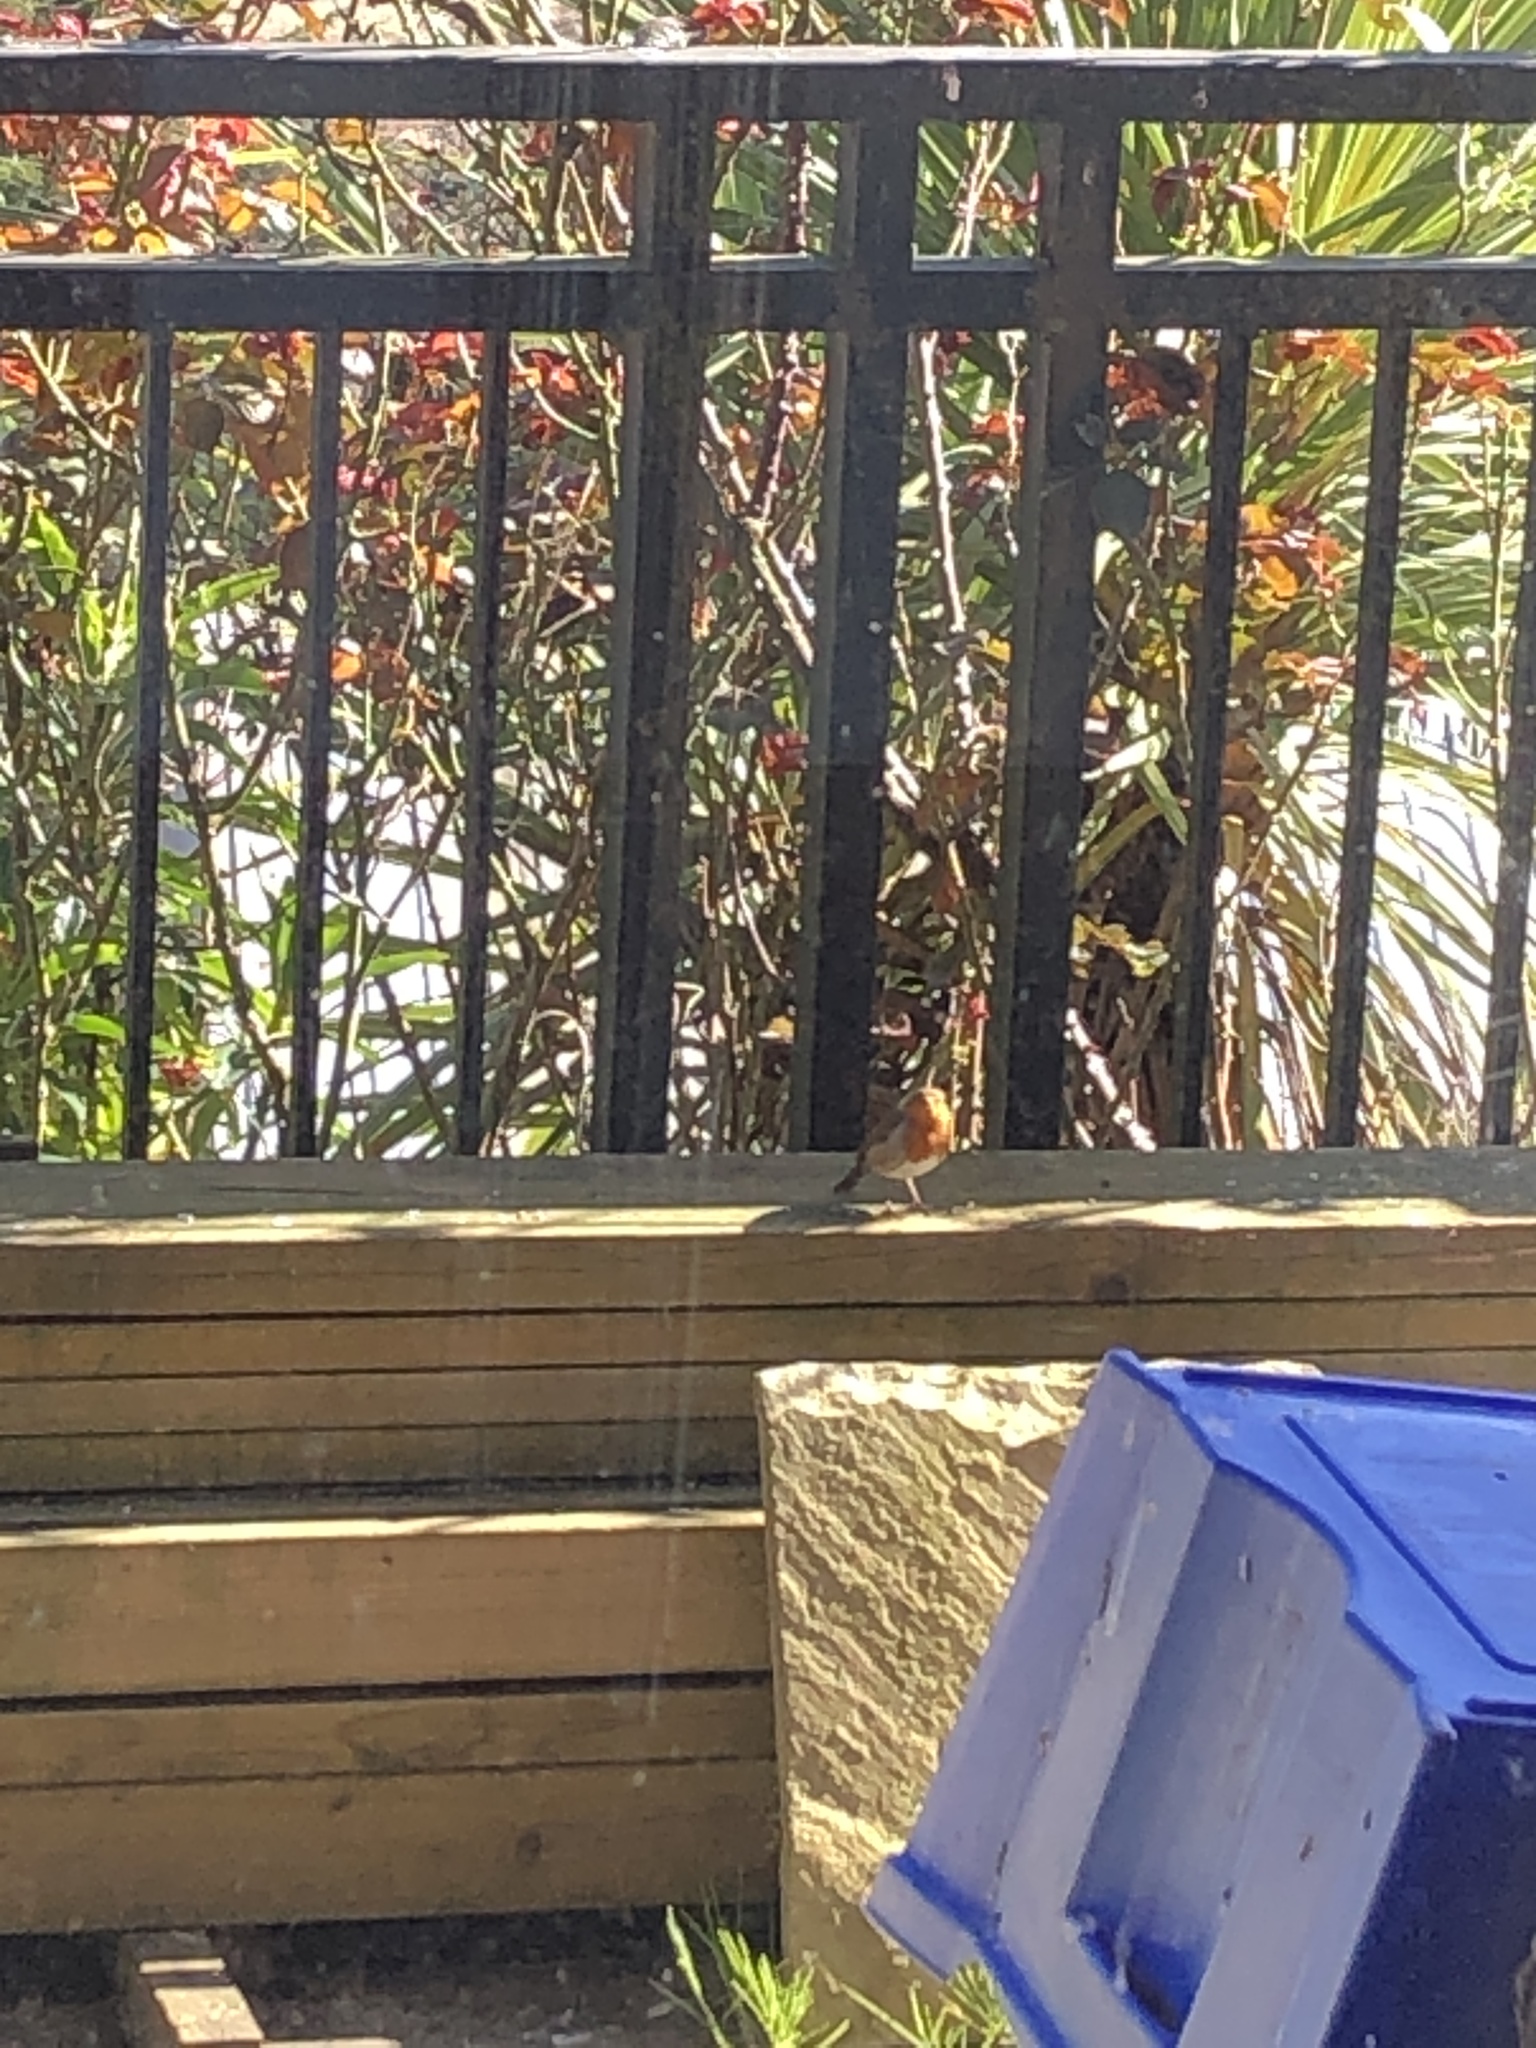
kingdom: Animalia
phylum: Chordata
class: Aves
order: Passeriformes
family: Muscicapidae
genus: Erithacus
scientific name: Erithacus rubecula
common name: European robin
